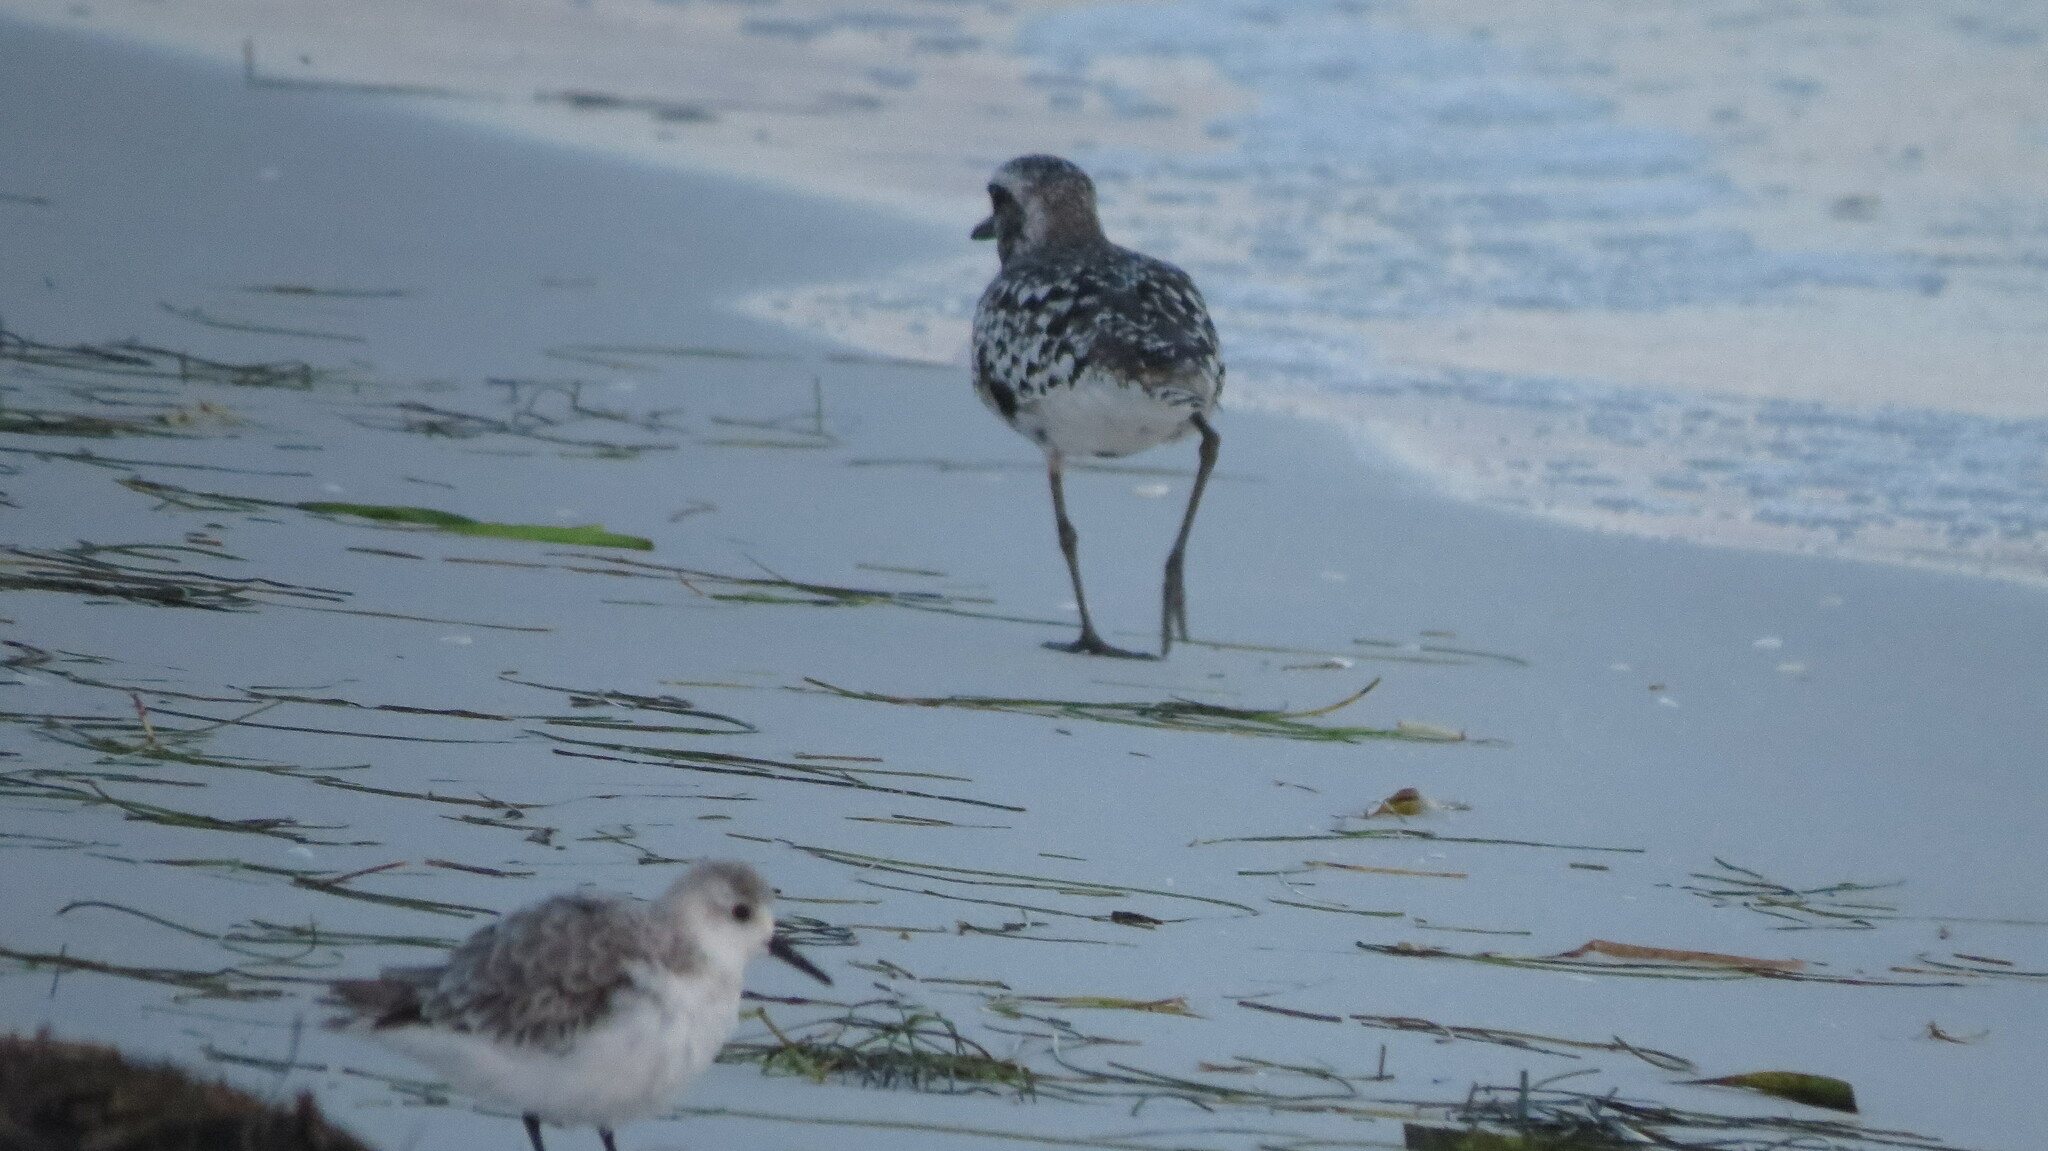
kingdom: Animalia
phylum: Chordata
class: Aves
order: Charadriiformes
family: Charadriidae
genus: Pluvialis
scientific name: Pluvialis squatarola
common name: Grey plover
